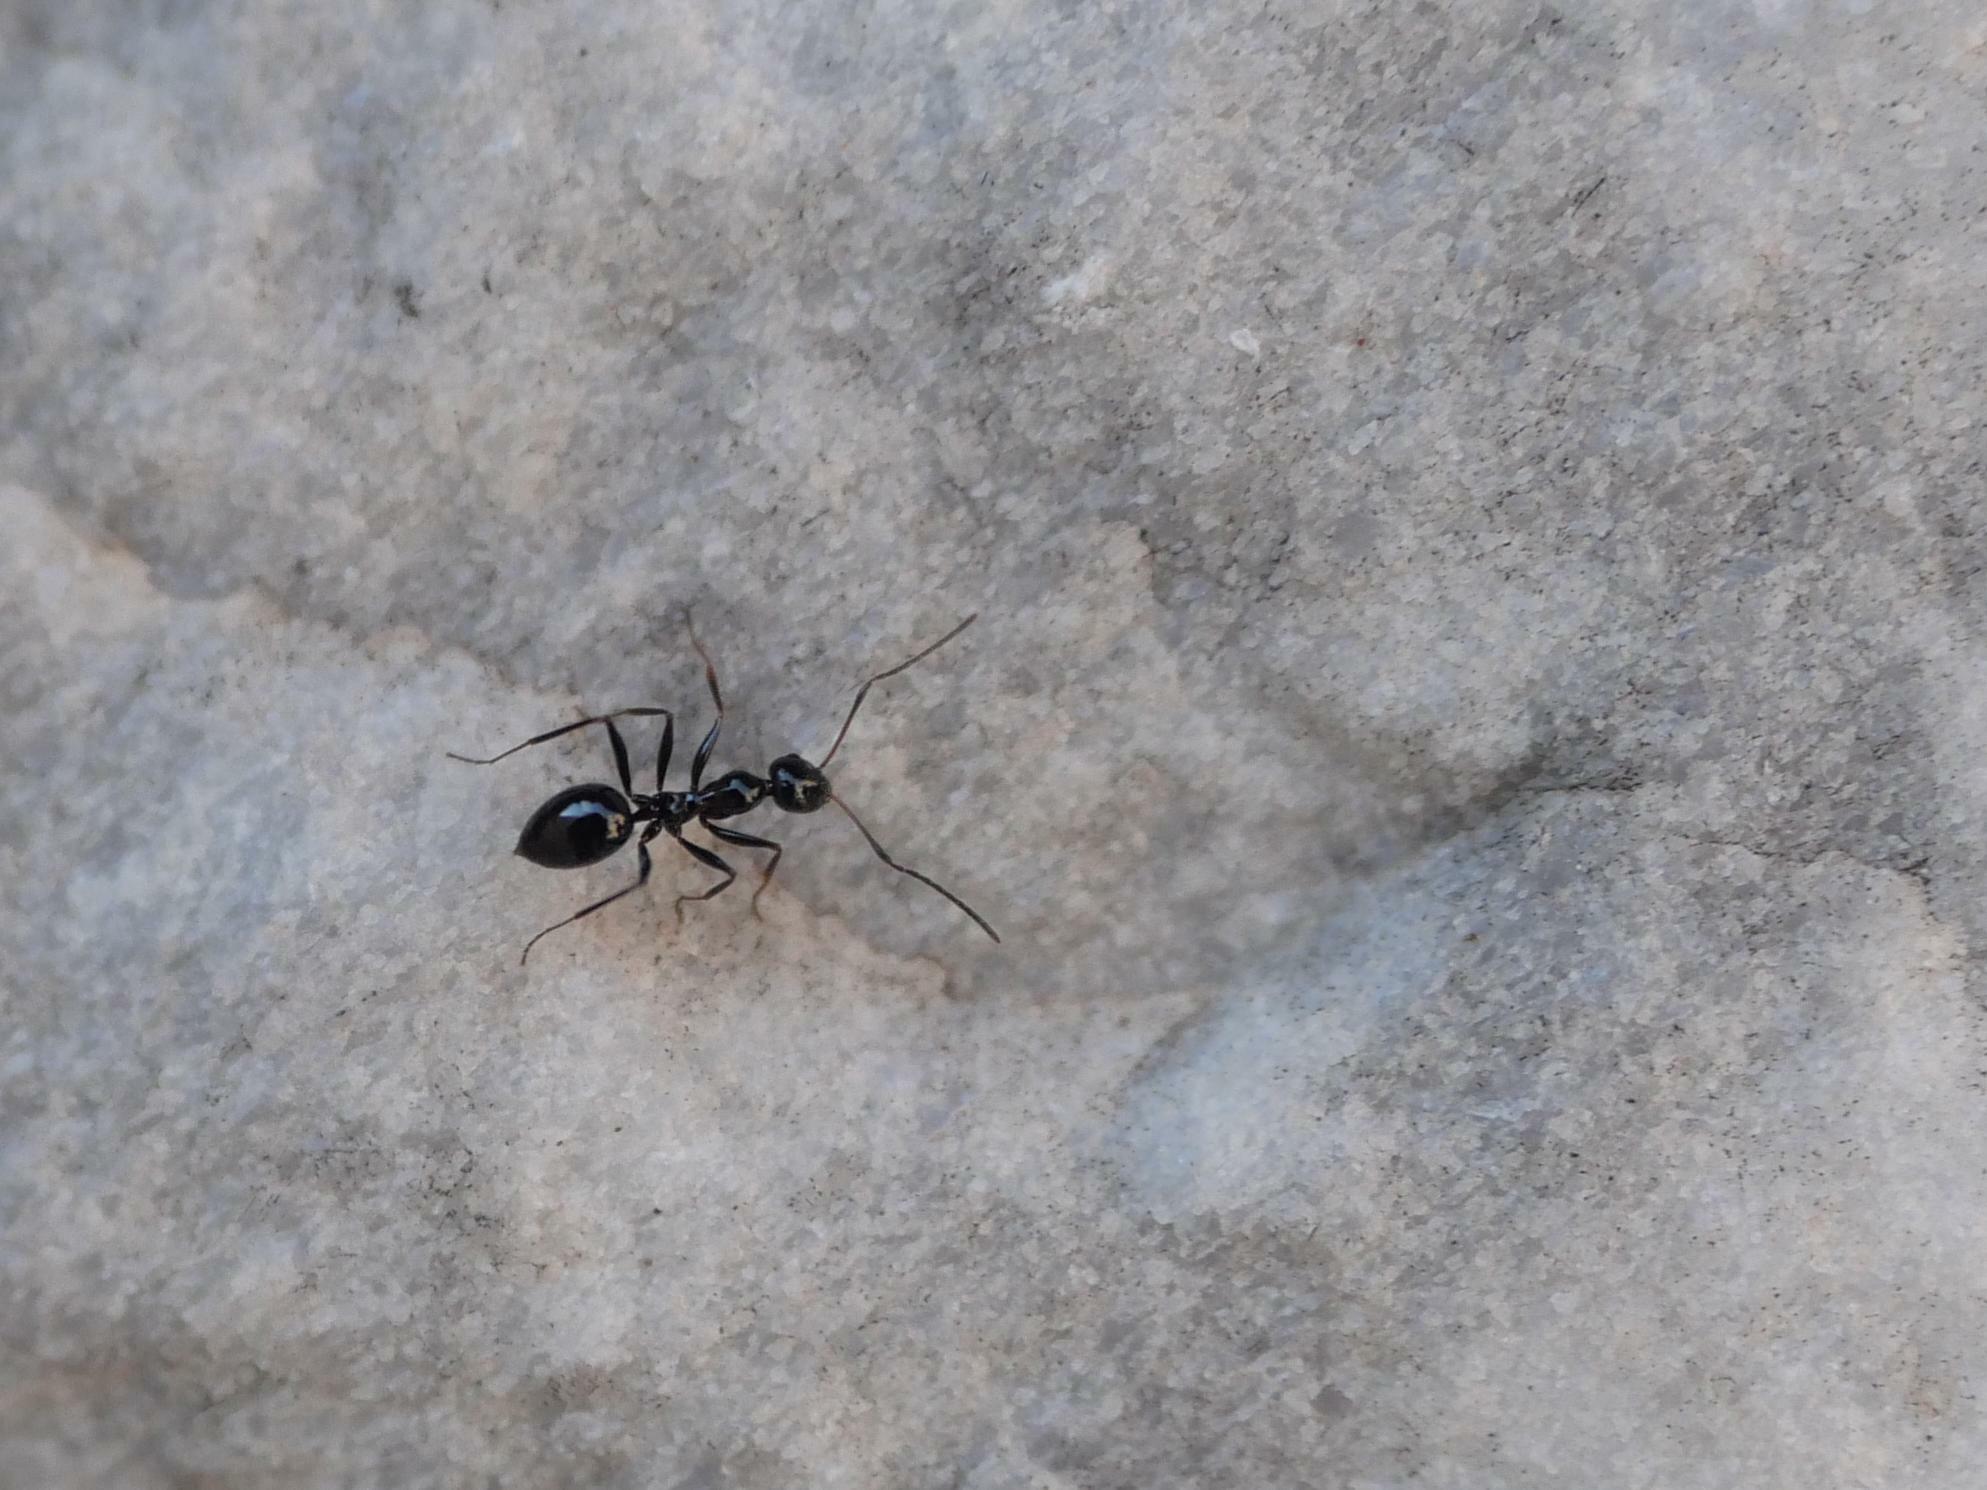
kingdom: Animalia
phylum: Arthropoda
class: Insecta
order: Hymenoptera
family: Formicidae
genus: Lepisiota
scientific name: Lepisiota nigra
